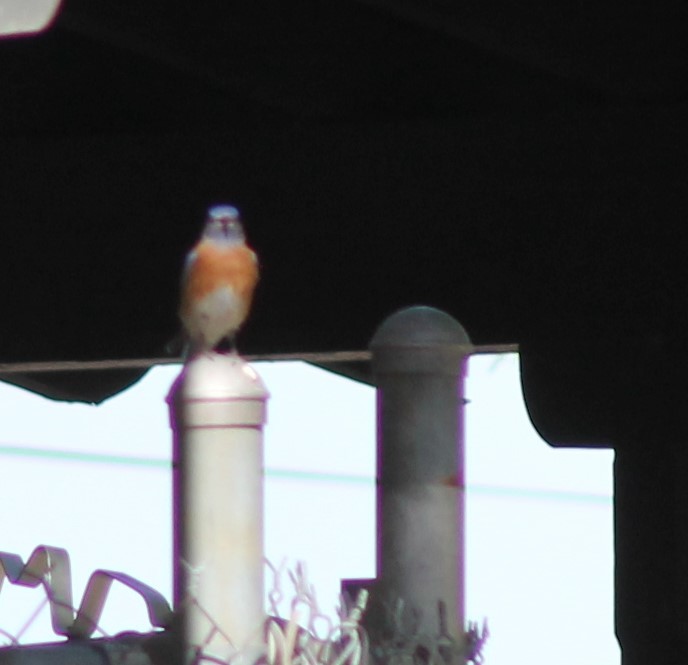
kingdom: Animalia
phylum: Chordata
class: Aves
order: Passeriformes
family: Turdidae
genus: Sialia
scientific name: Sialia mexicana
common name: Western bluebird
